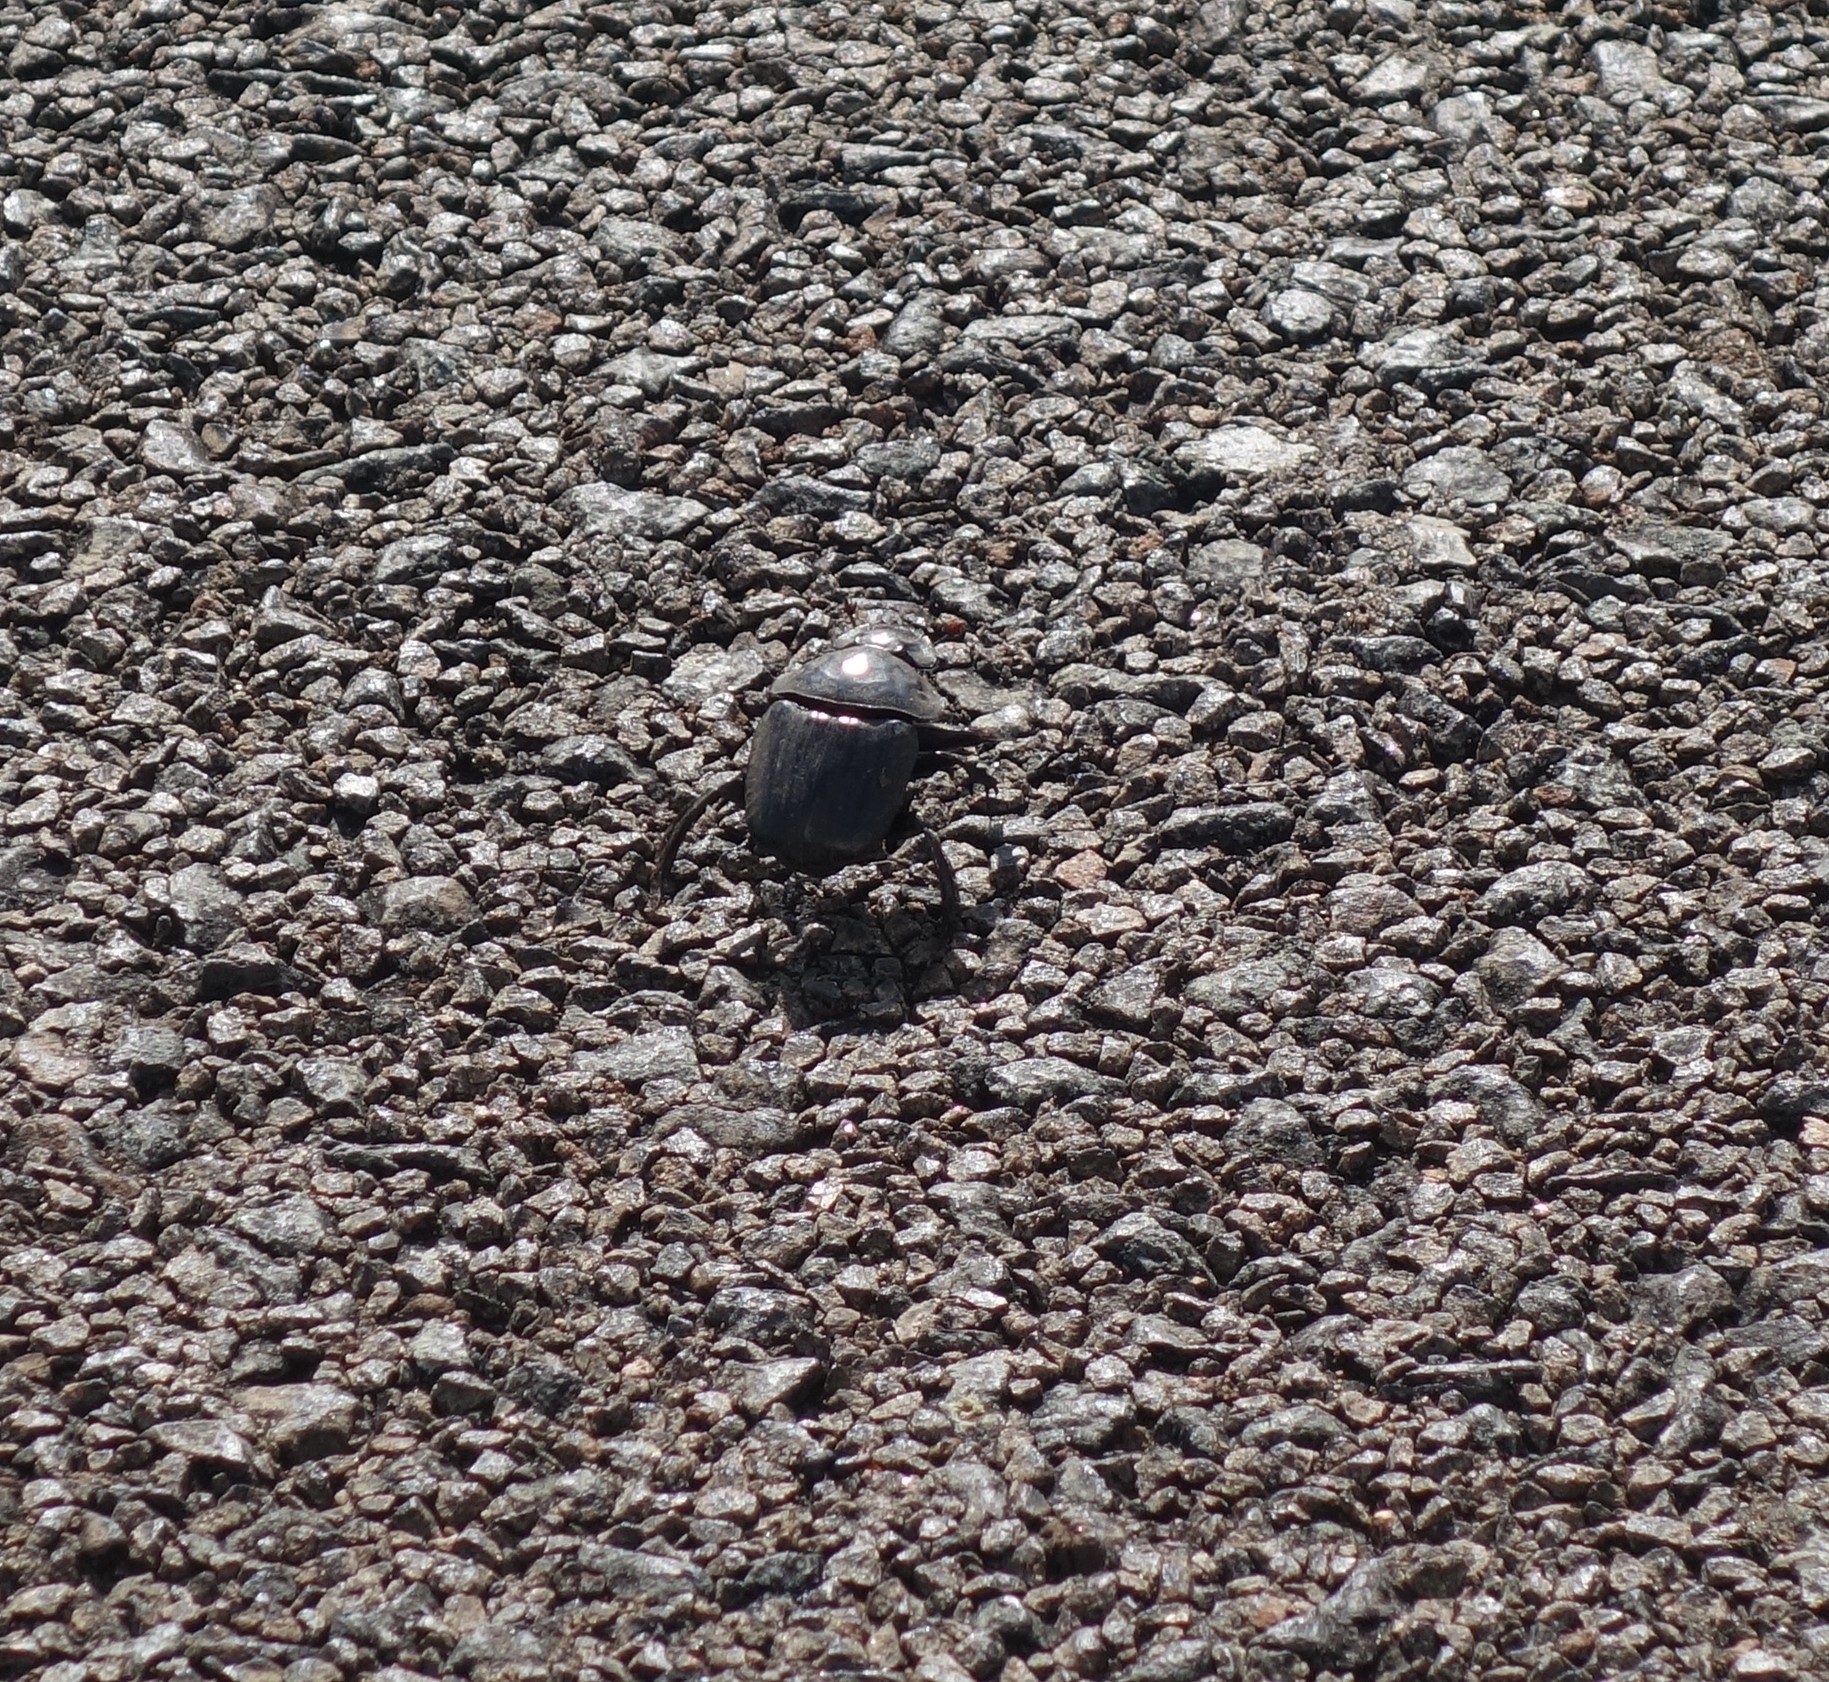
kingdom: Animalia
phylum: Arthropoda
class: Insecta
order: Coleoptera
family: Scarabaeidae
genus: Pachylomera
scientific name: Pachylomera femoralis
